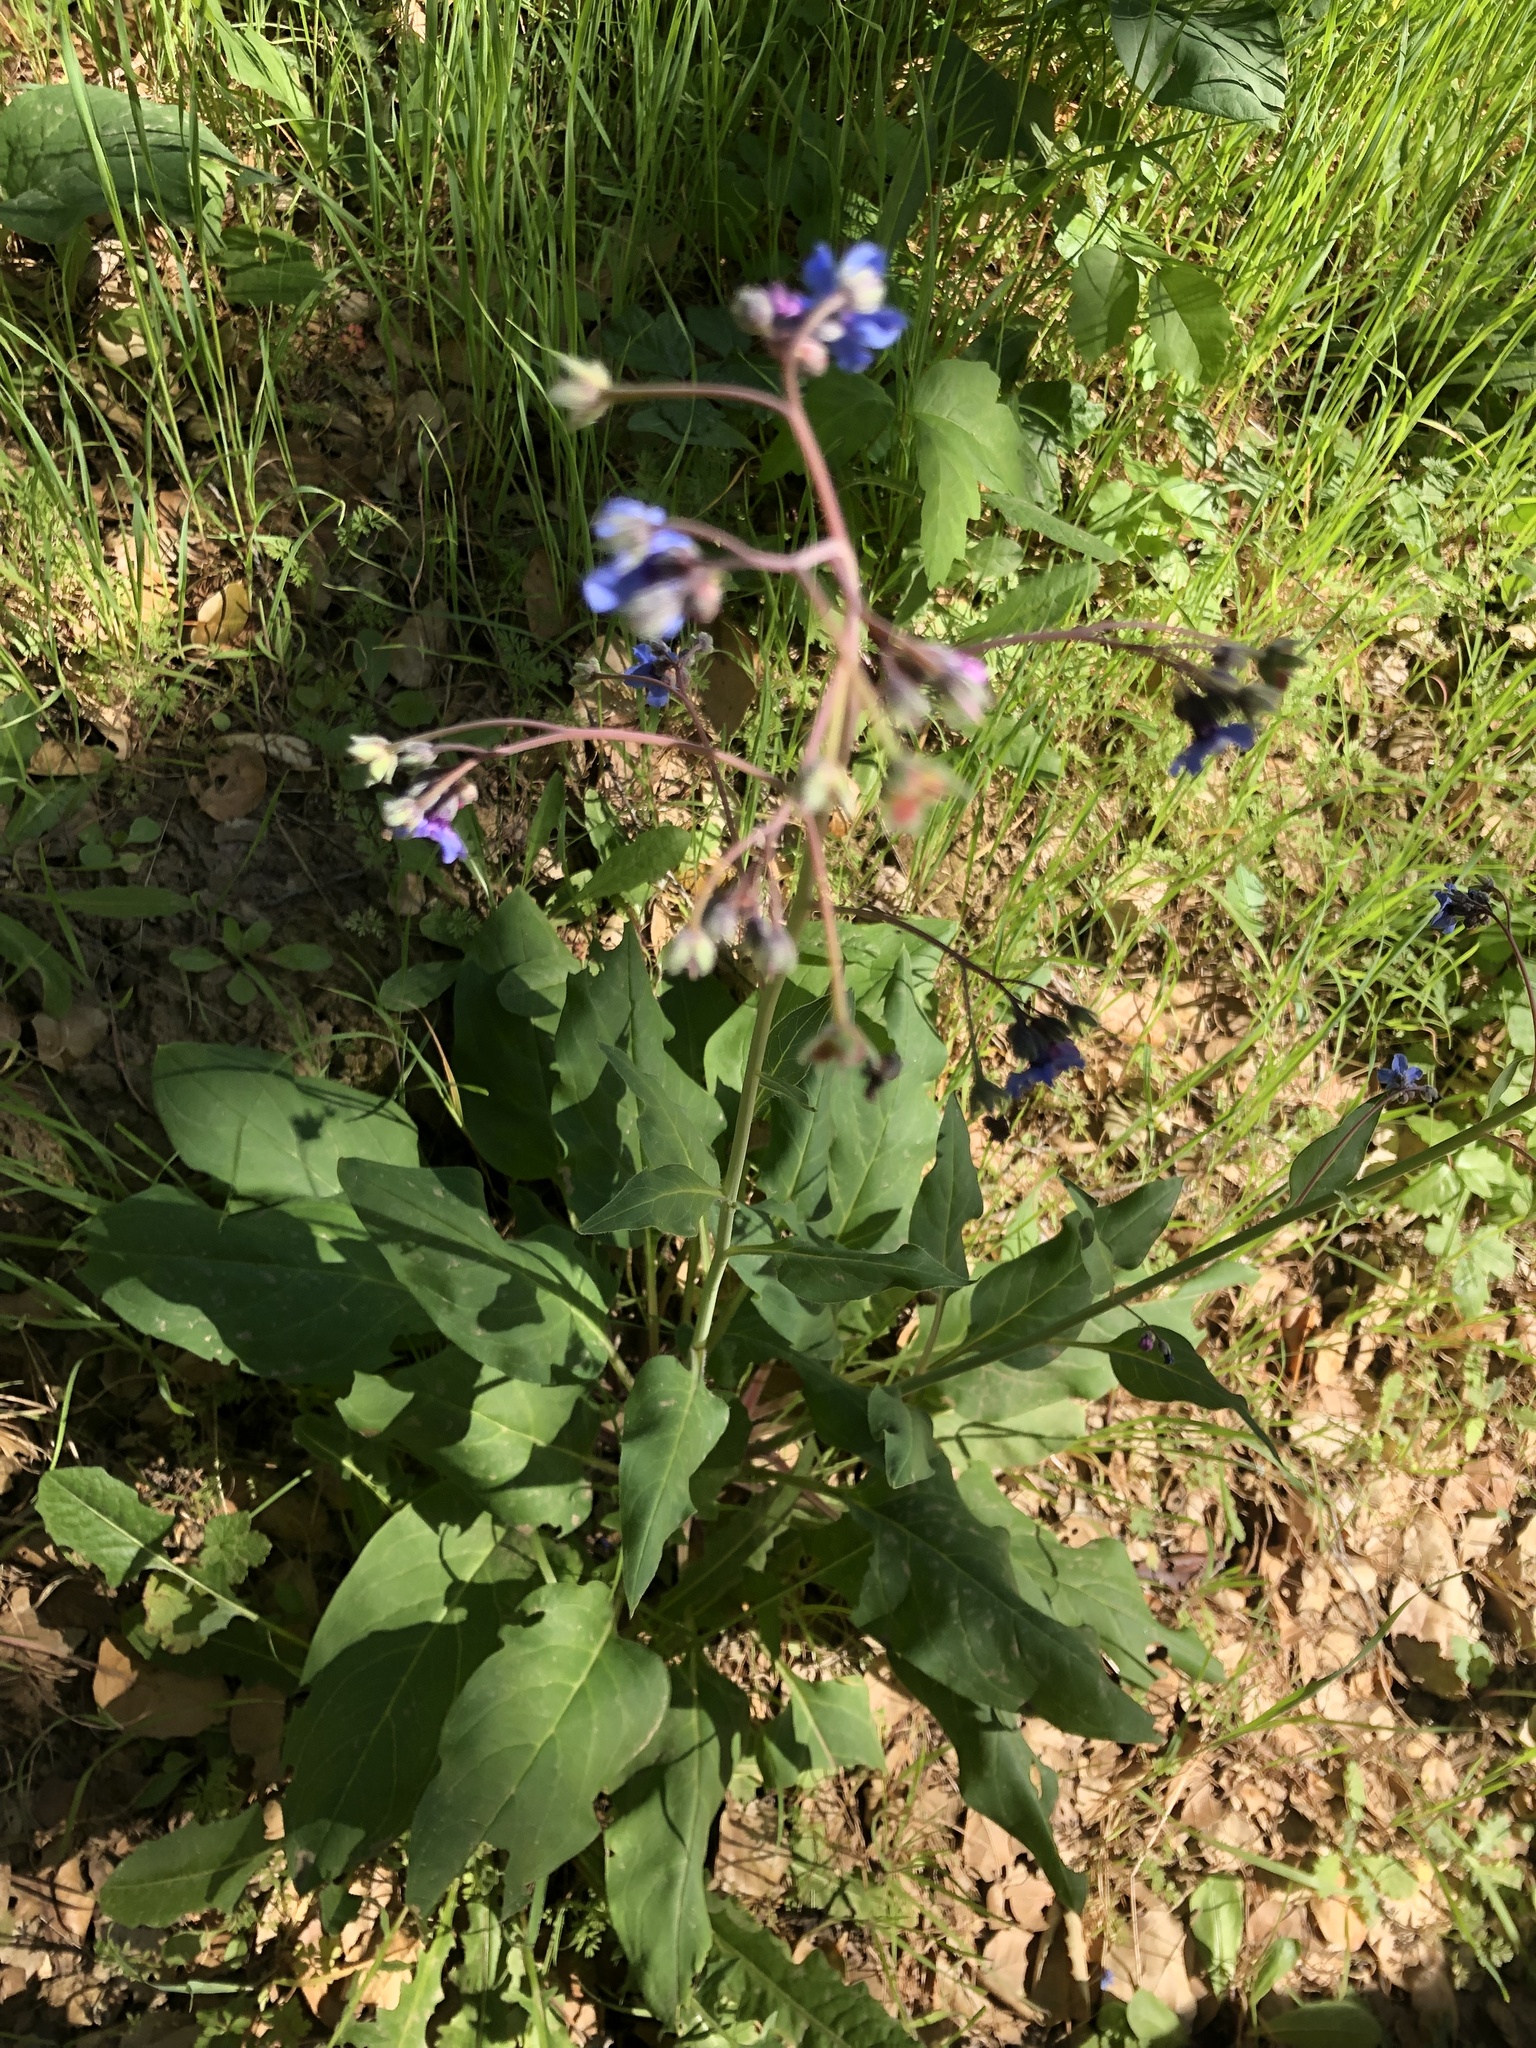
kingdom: Plantae
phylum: Tracheophyta
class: Magnoliopsida
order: Boraginales
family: Boraginaceae
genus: Adelinia
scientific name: Adelinia grande
